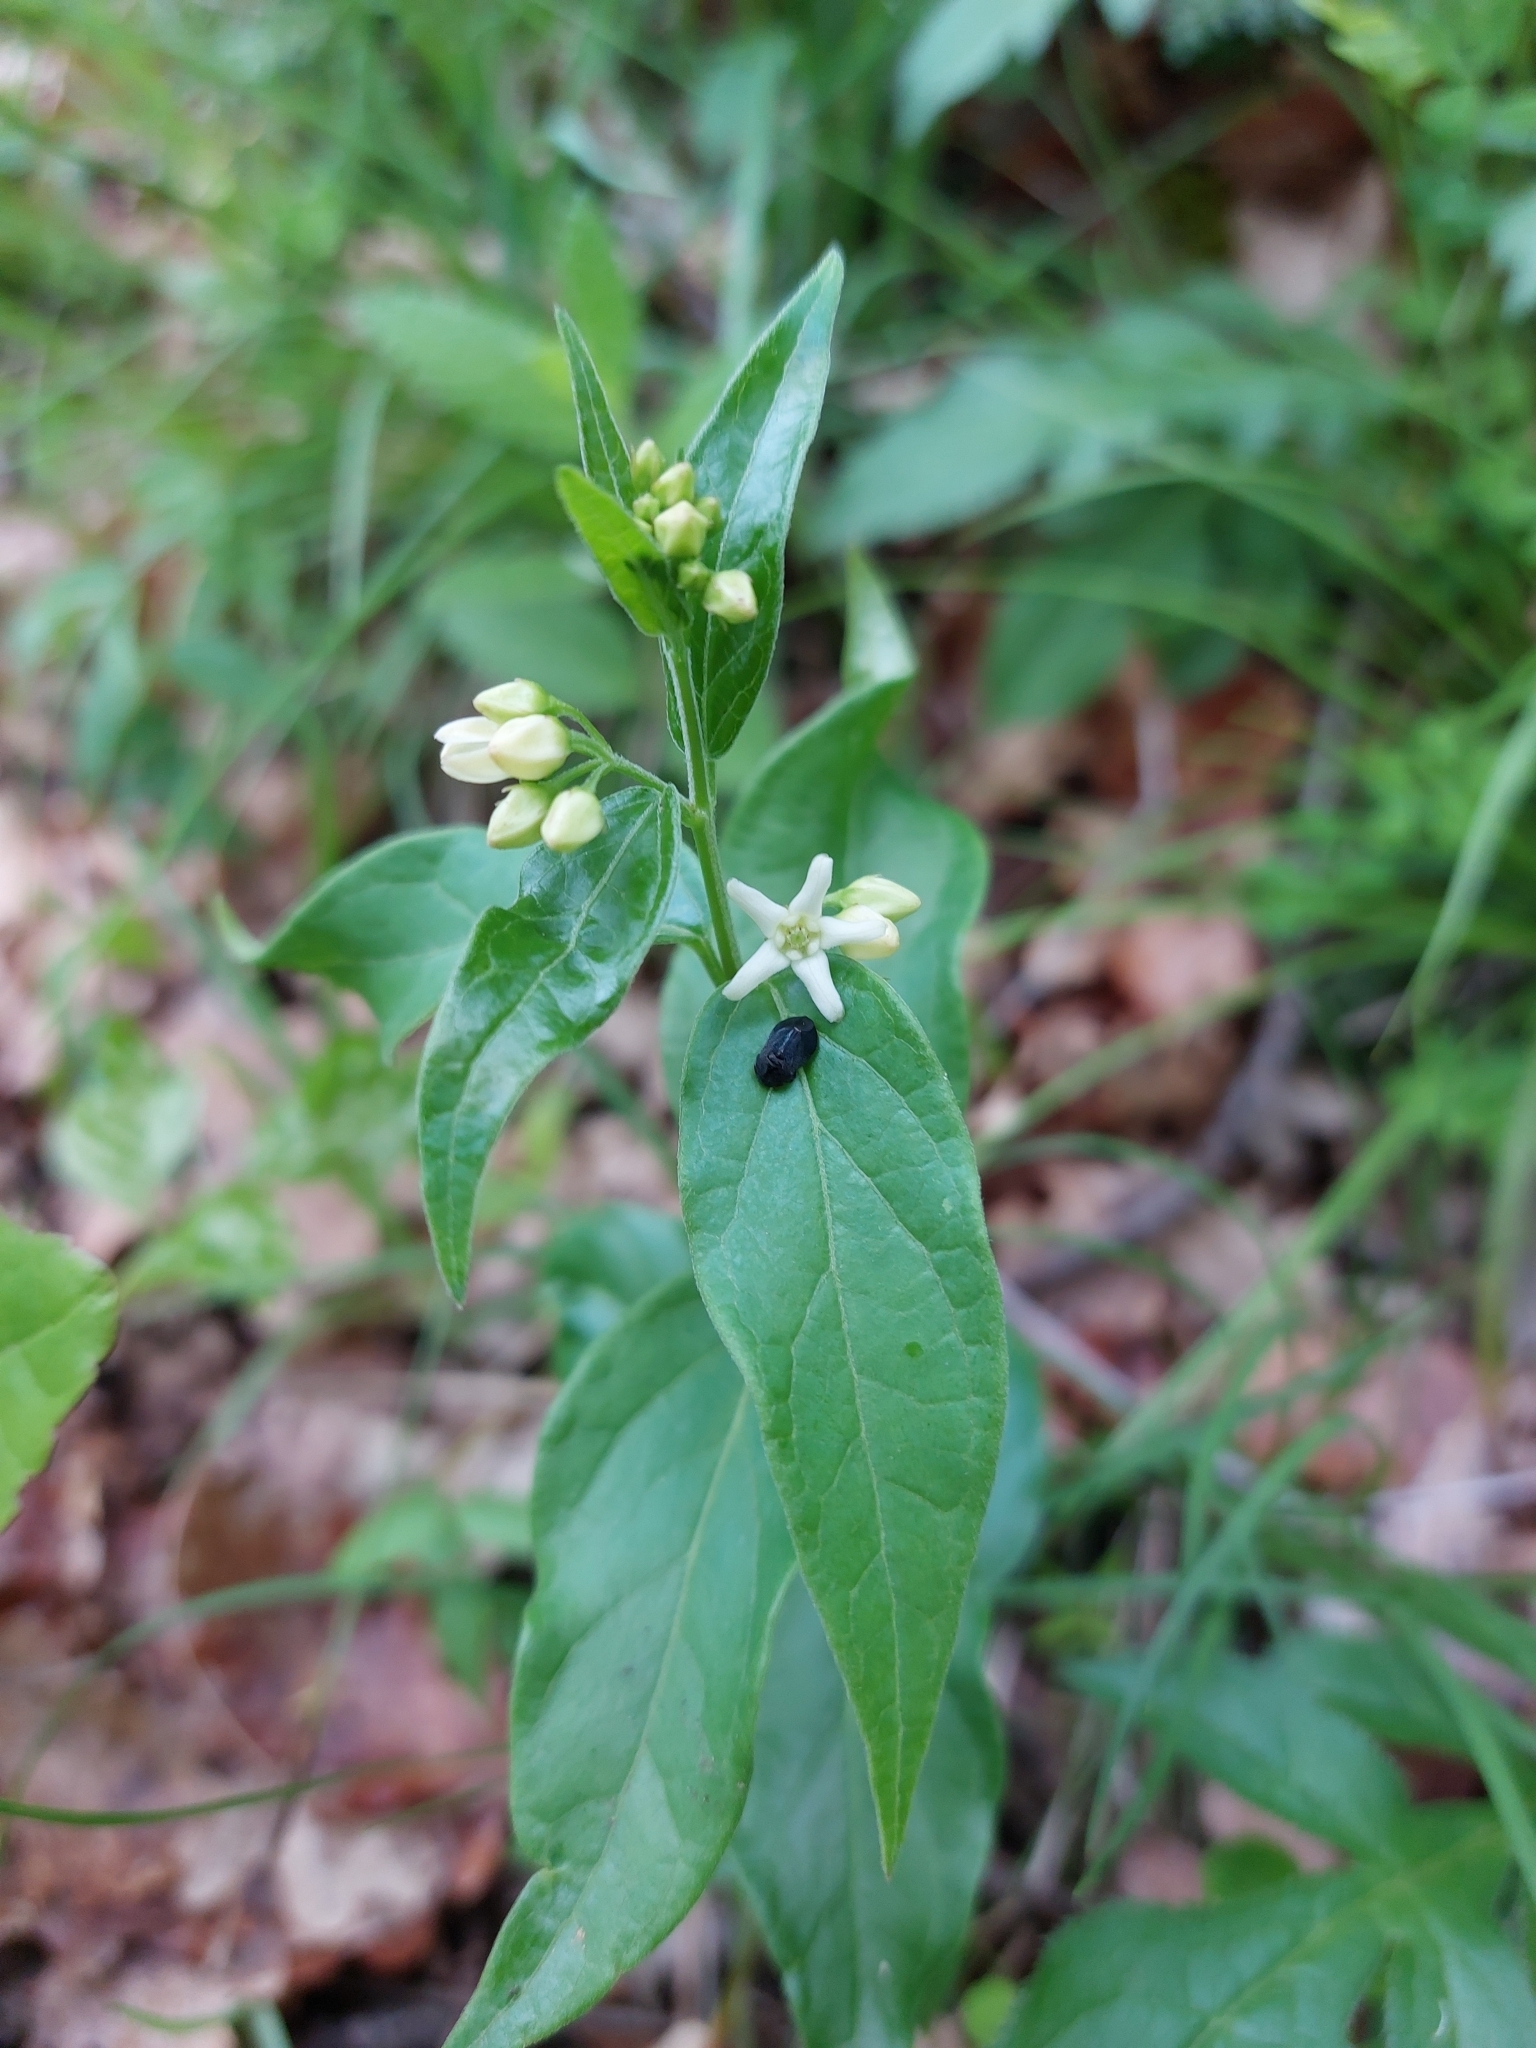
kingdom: Plantae
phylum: Tracheophyta
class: Magnoliopsida
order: Gentianales
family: Apocynaceae
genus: Vincetoxicum
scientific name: Vincetoxicum hirundinaria
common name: White swallowwort
